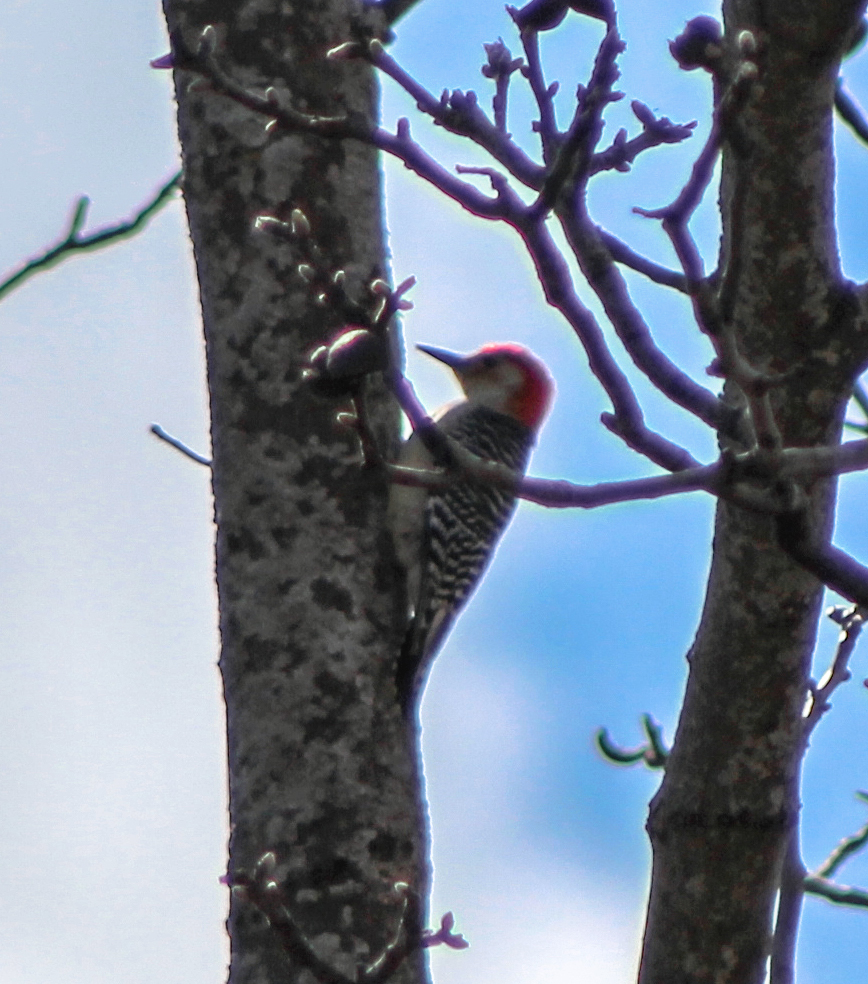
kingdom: Animalia
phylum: Chordata
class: Aves
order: Piciformes
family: Picidae
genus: Melanerpes
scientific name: Melanerpes carolinus
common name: Red-bellied woodpecker
